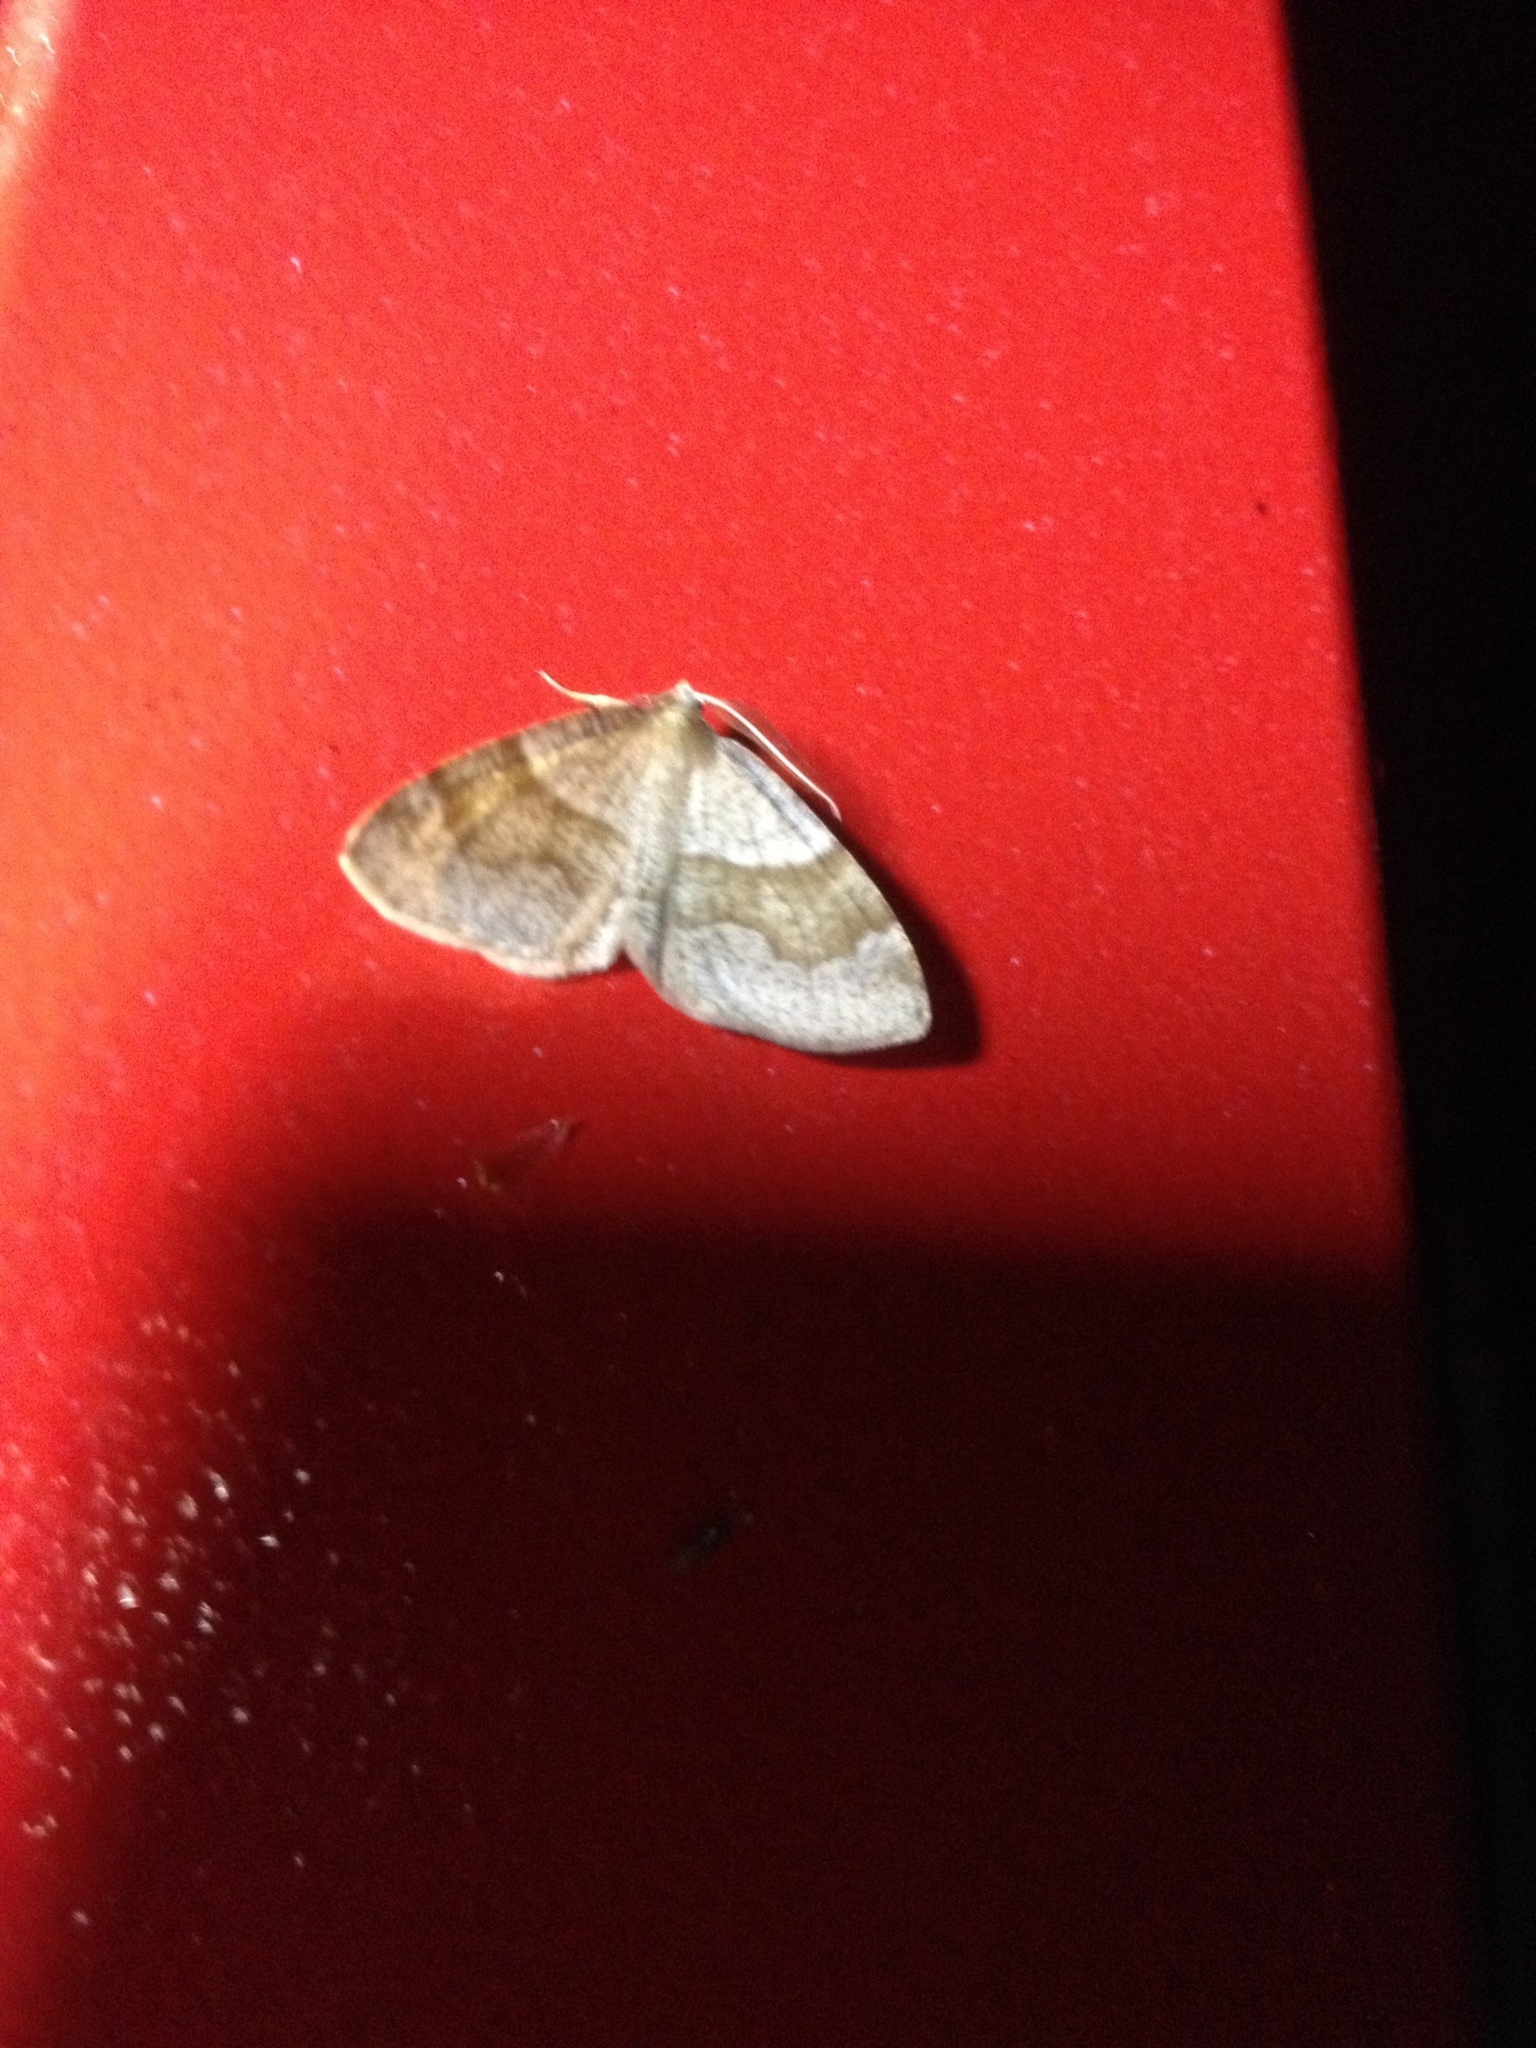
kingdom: Animalia
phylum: Arthropoda
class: Insecta
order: Lepidoptera
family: Geometridae
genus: Plagodis
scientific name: Plagodis pulveraria
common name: Barred umber
